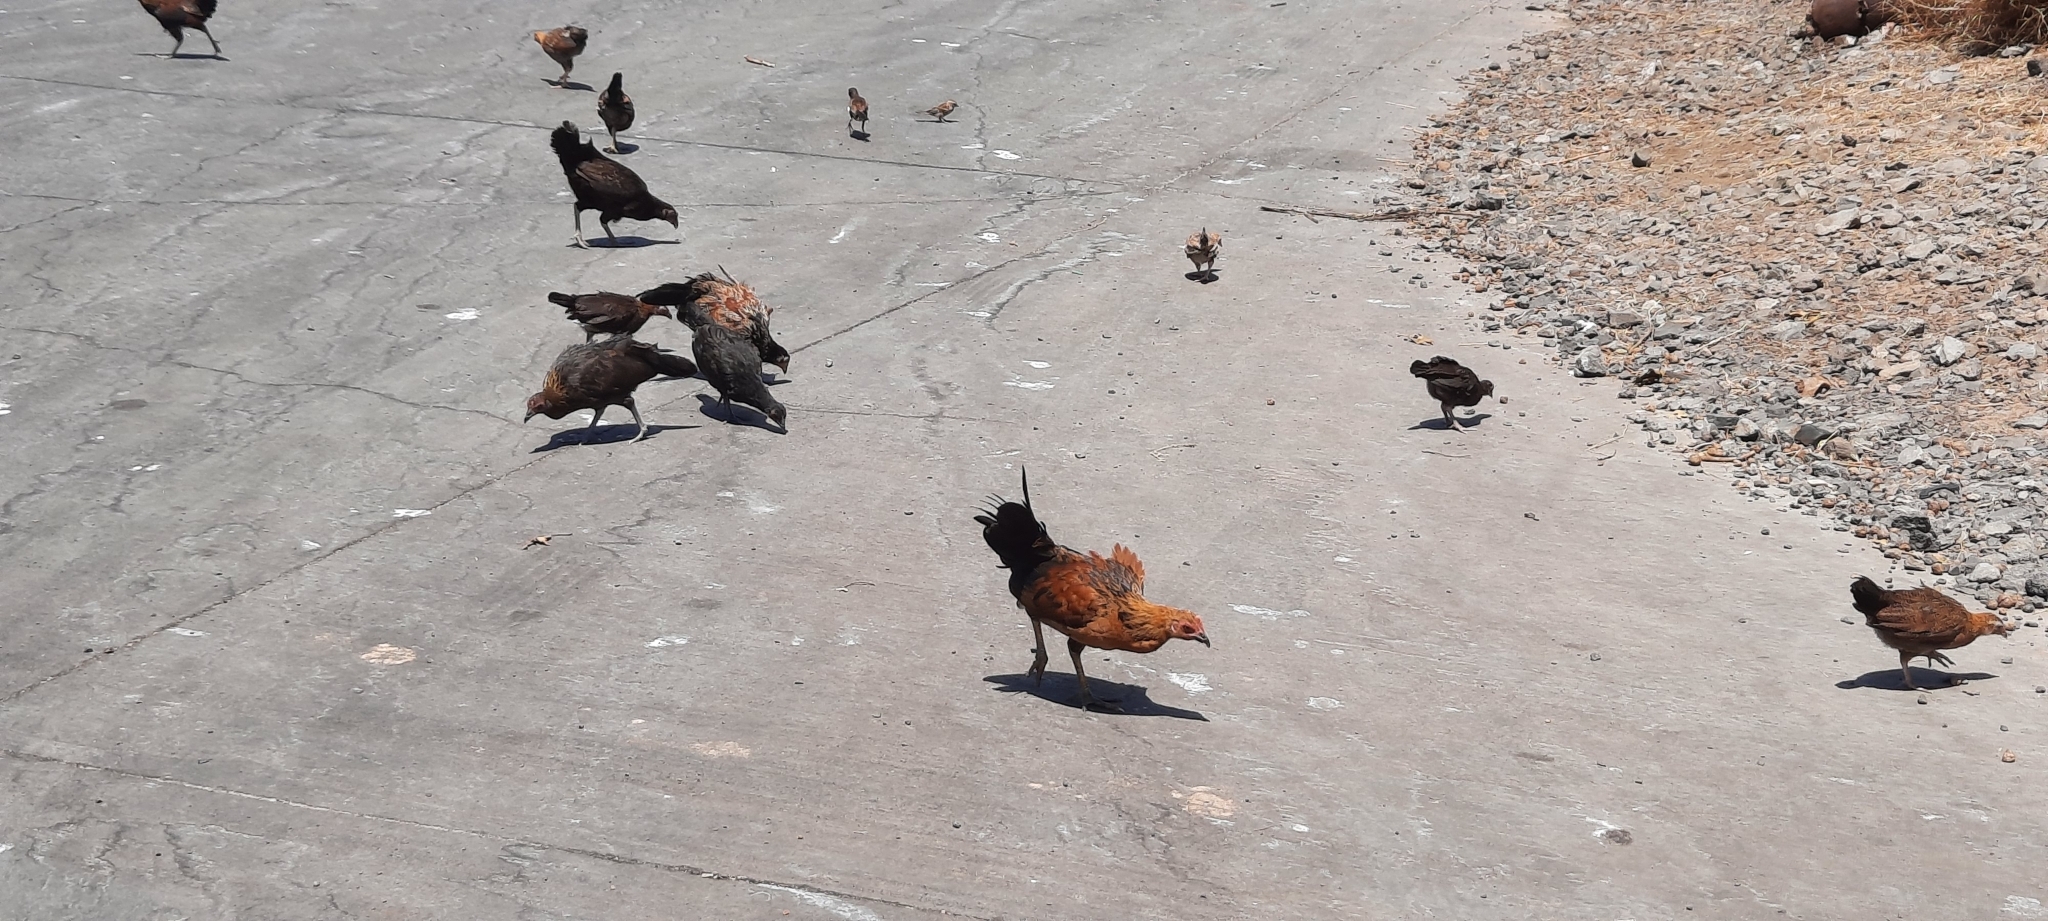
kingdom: Animalia
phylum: Chordata
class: Aves
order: Galliformes
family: Phasianidae
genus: Gallus
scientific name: Gallus gallus
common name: Red junglefowl
